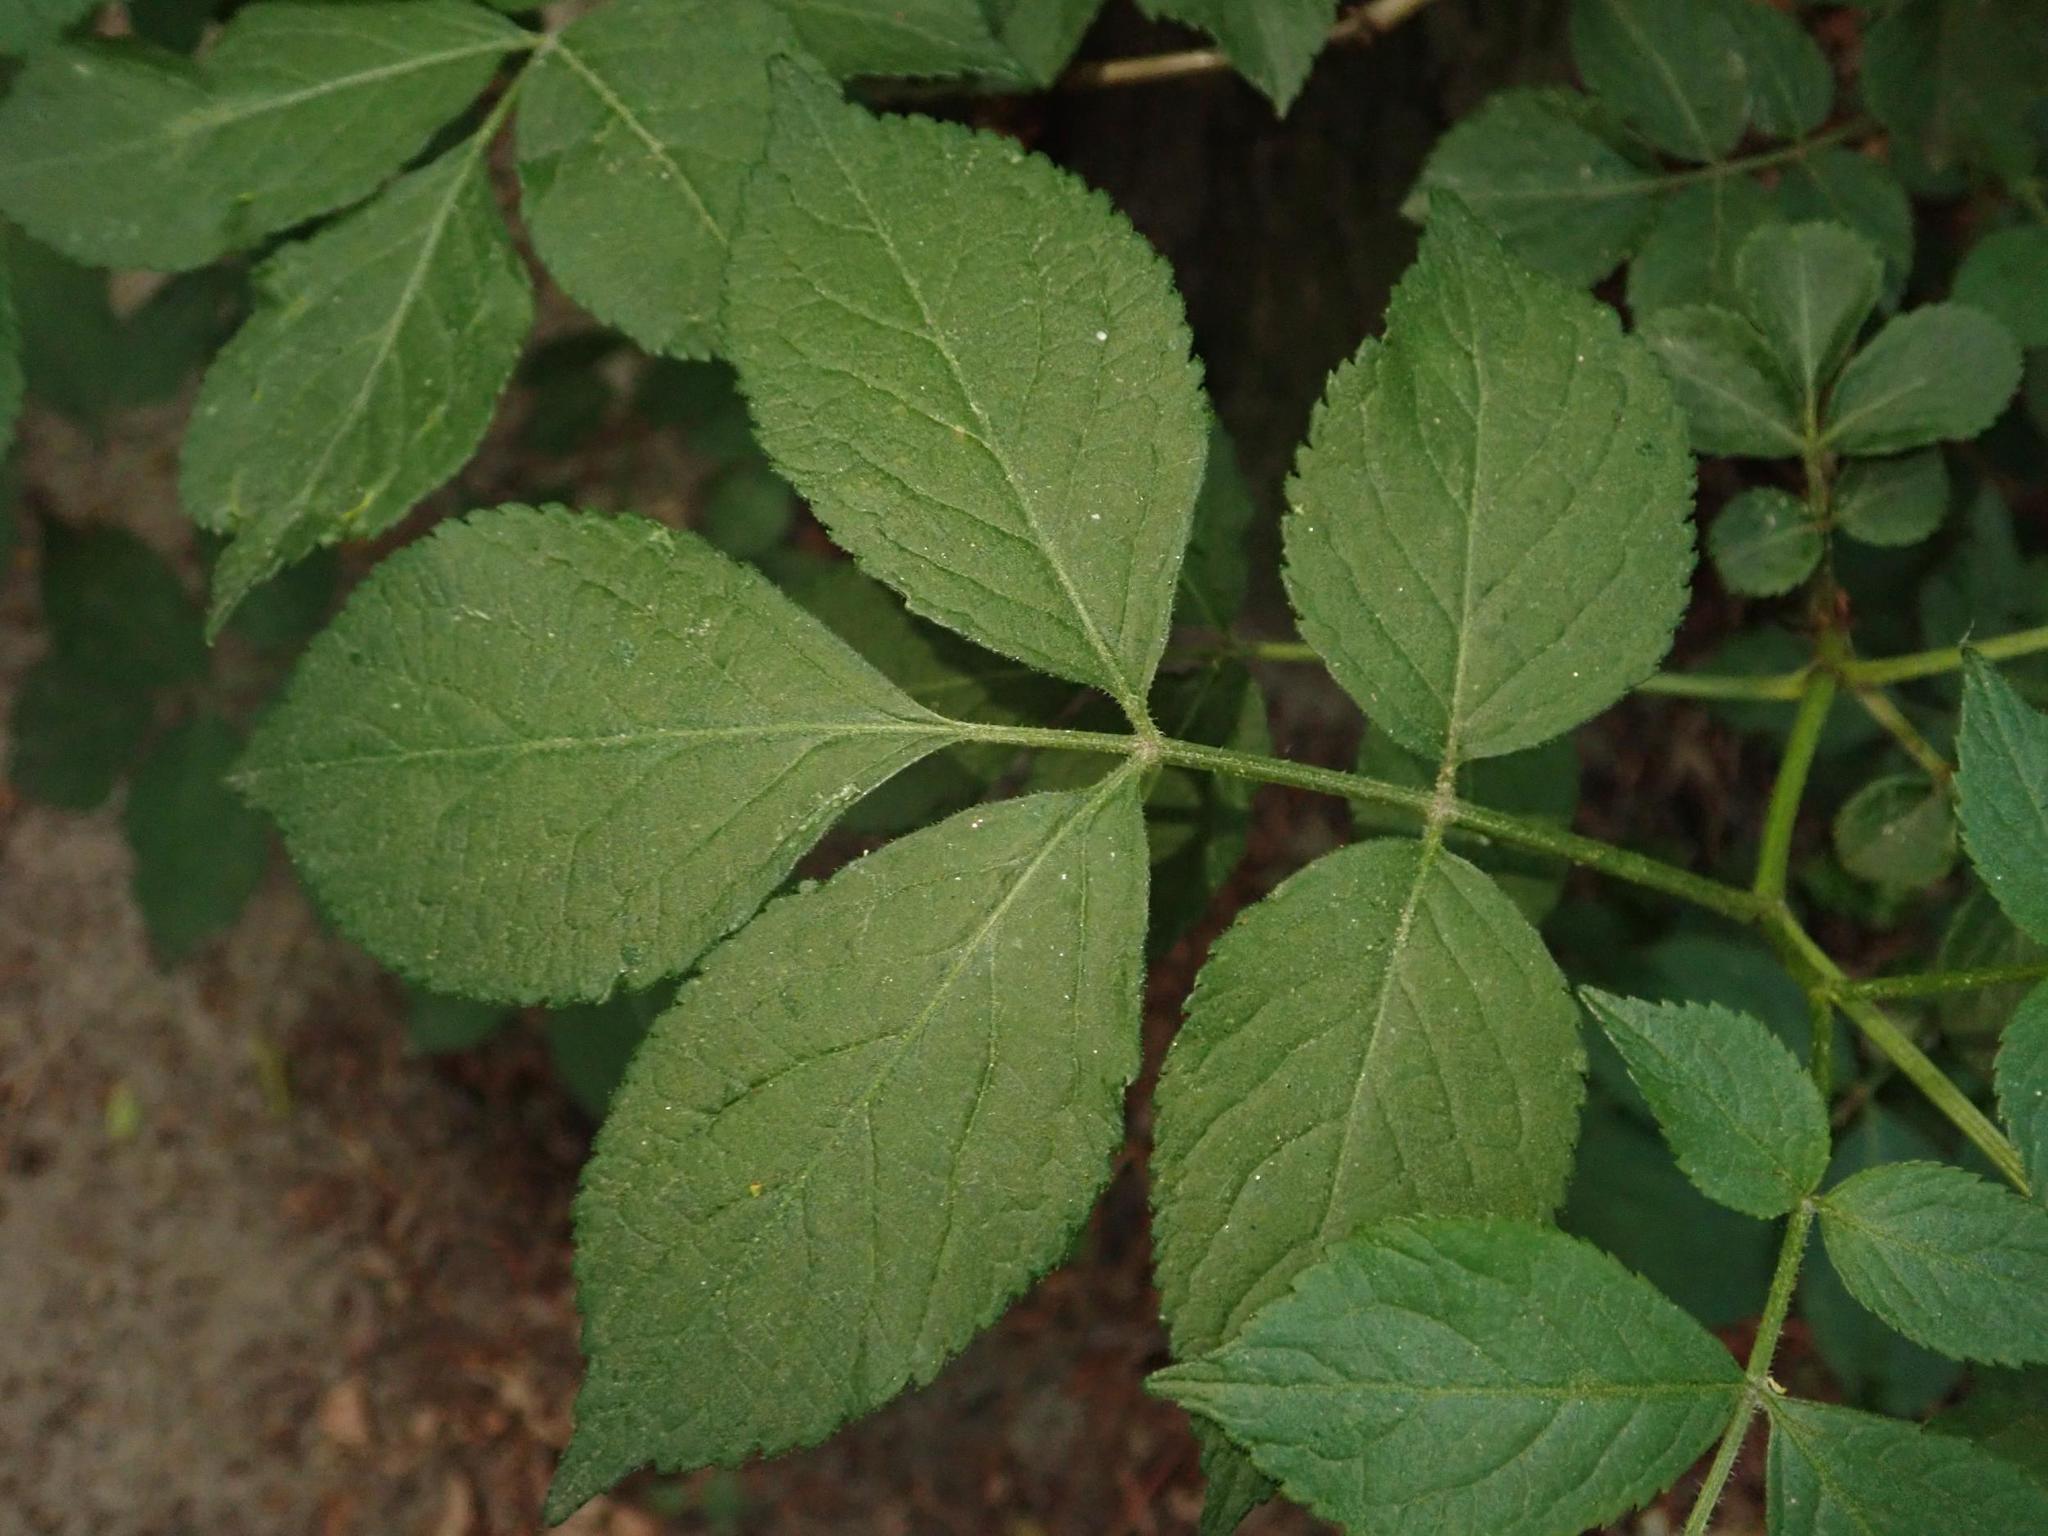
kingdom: Plantae
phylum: Tracheophyta
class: Magnoliopsida
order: Dipsacales
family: Viburnaceae
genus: Sambucus
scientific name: Sambucus nigra
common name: Elder
